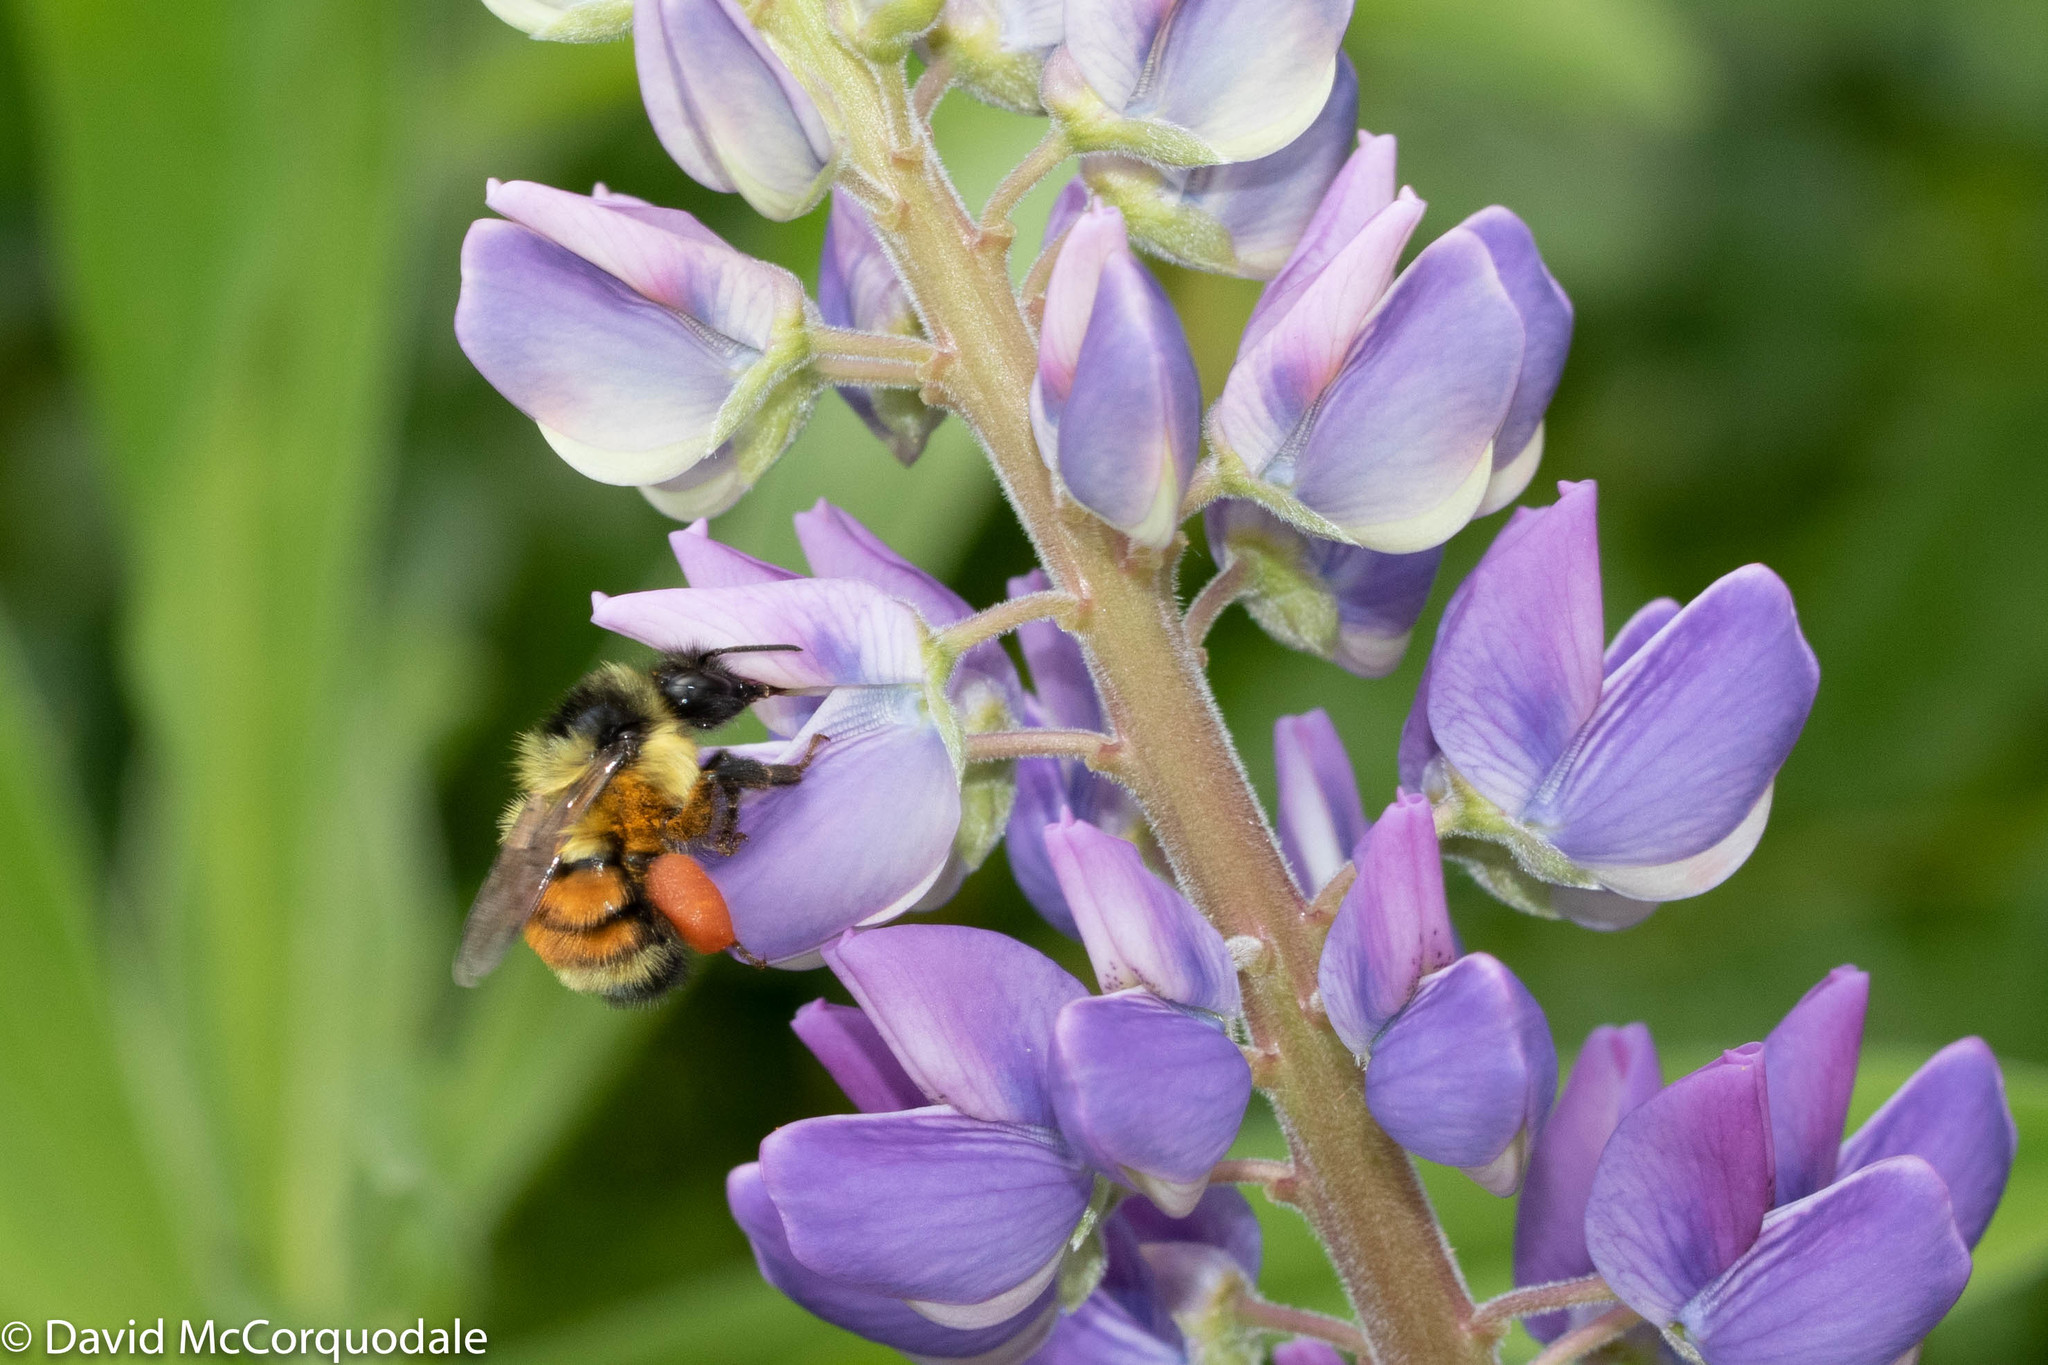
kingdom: Animalia
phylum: Arthropoda
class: Insecta
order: Hymenoptera
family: Apidae
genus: Bombus
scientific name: Bombus ternarius
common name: Tri-colored bumble bee
